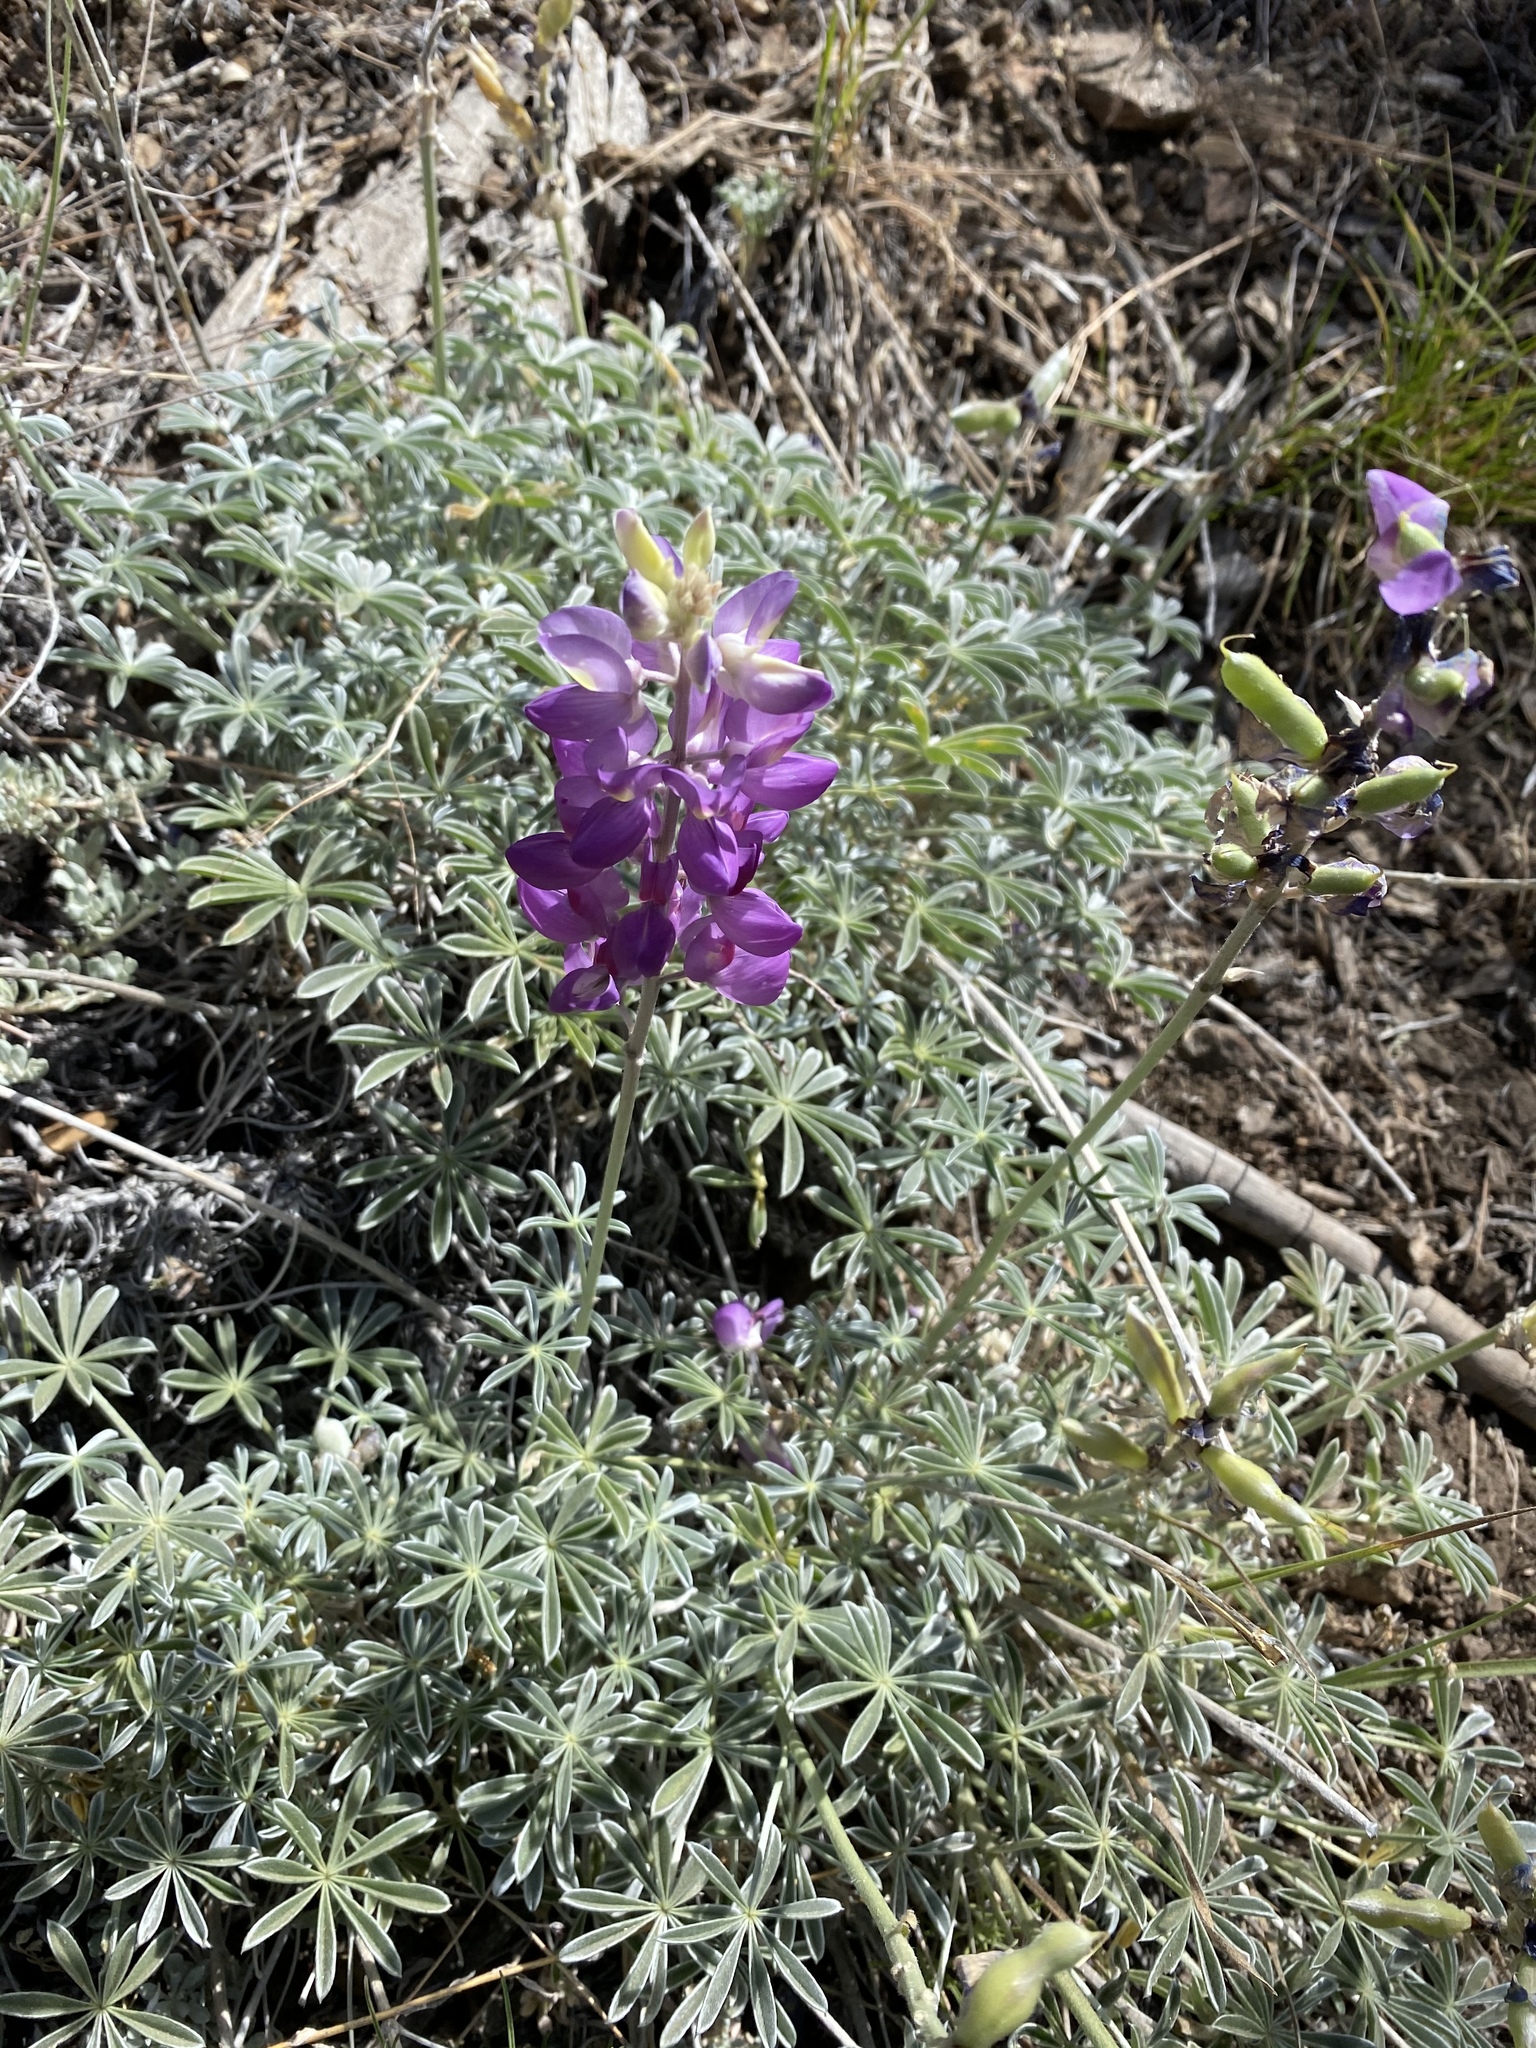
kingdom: Plantae
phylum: Tracheophyta
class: Magnoliopsida
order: Fabales
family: Fabaceae
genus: Lupinus
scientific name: Lupinus excubitus
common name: Grape soda lupine
